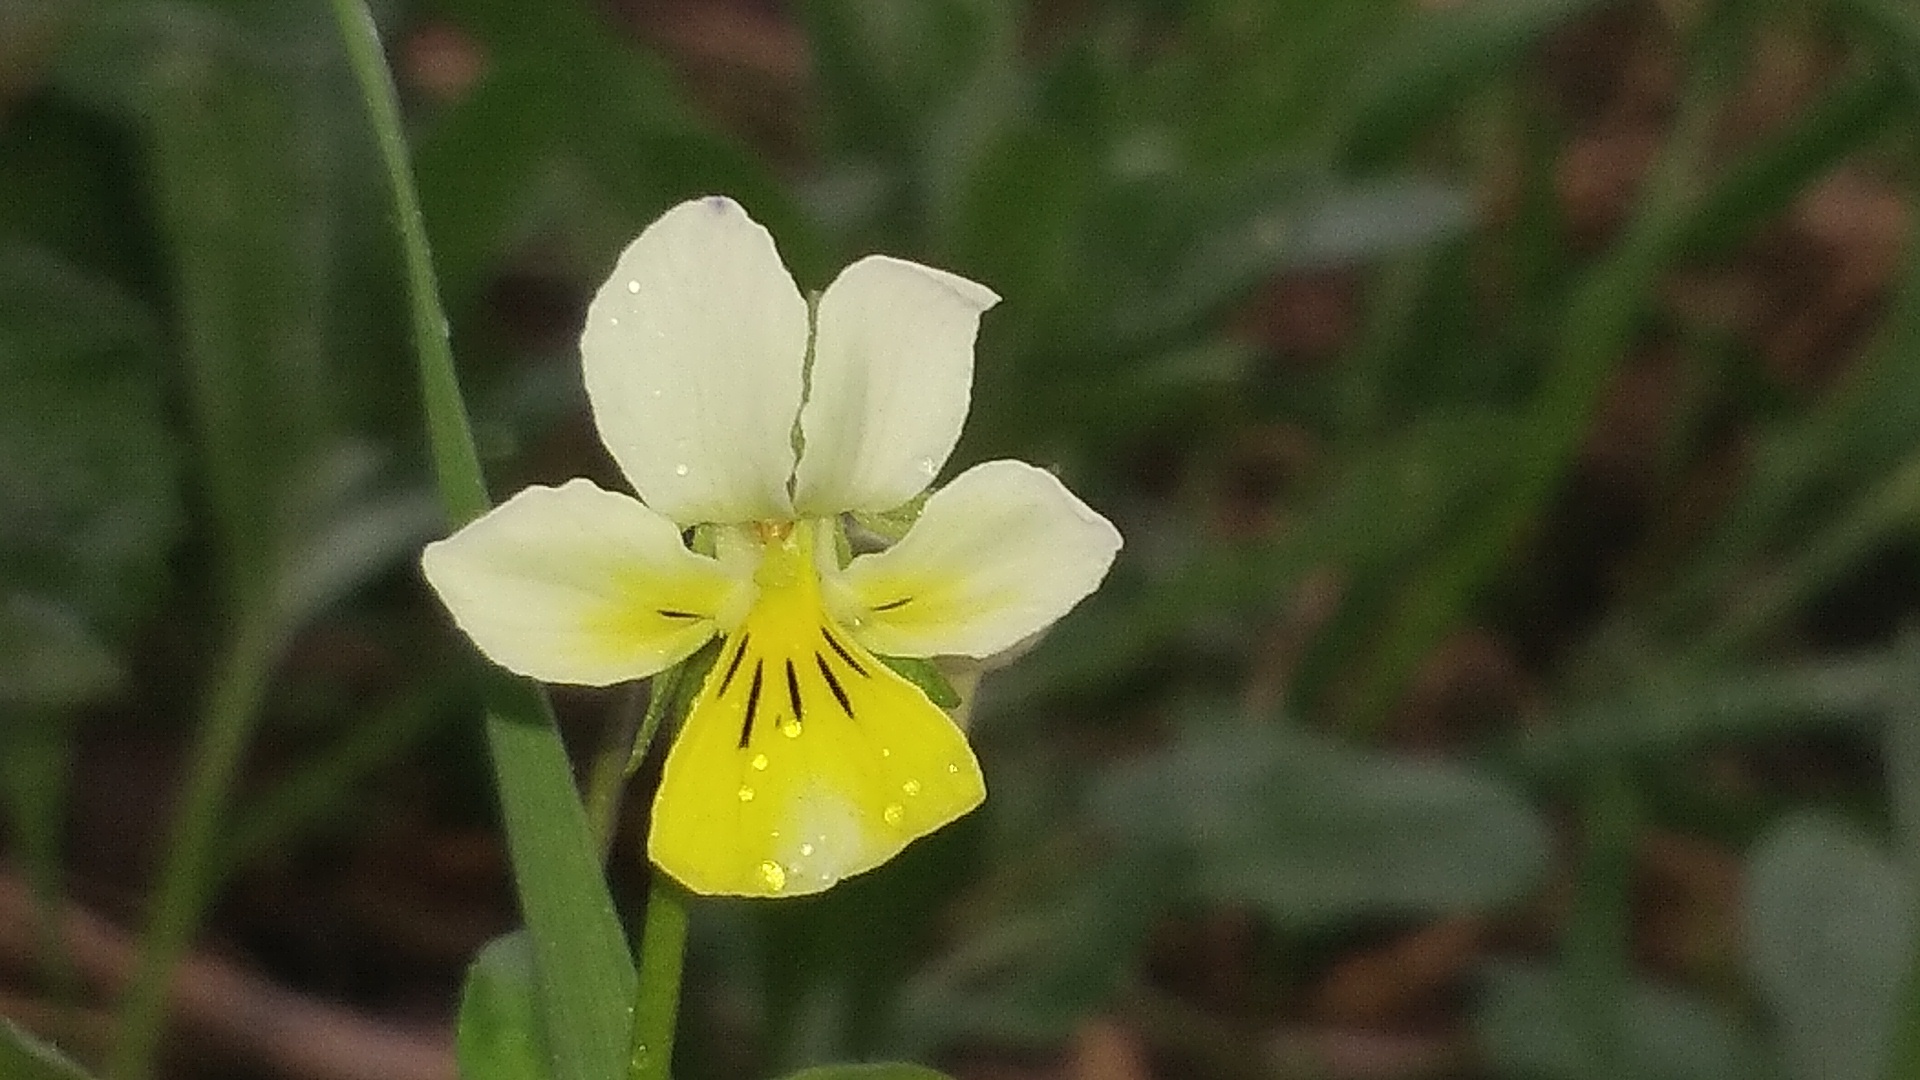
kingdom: Plantae
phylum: Tracheophyta
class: Magnoliopsida
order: Malpighiales
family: Violaceae
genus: Viola
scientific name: Viola arvensis
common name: Field pansy
